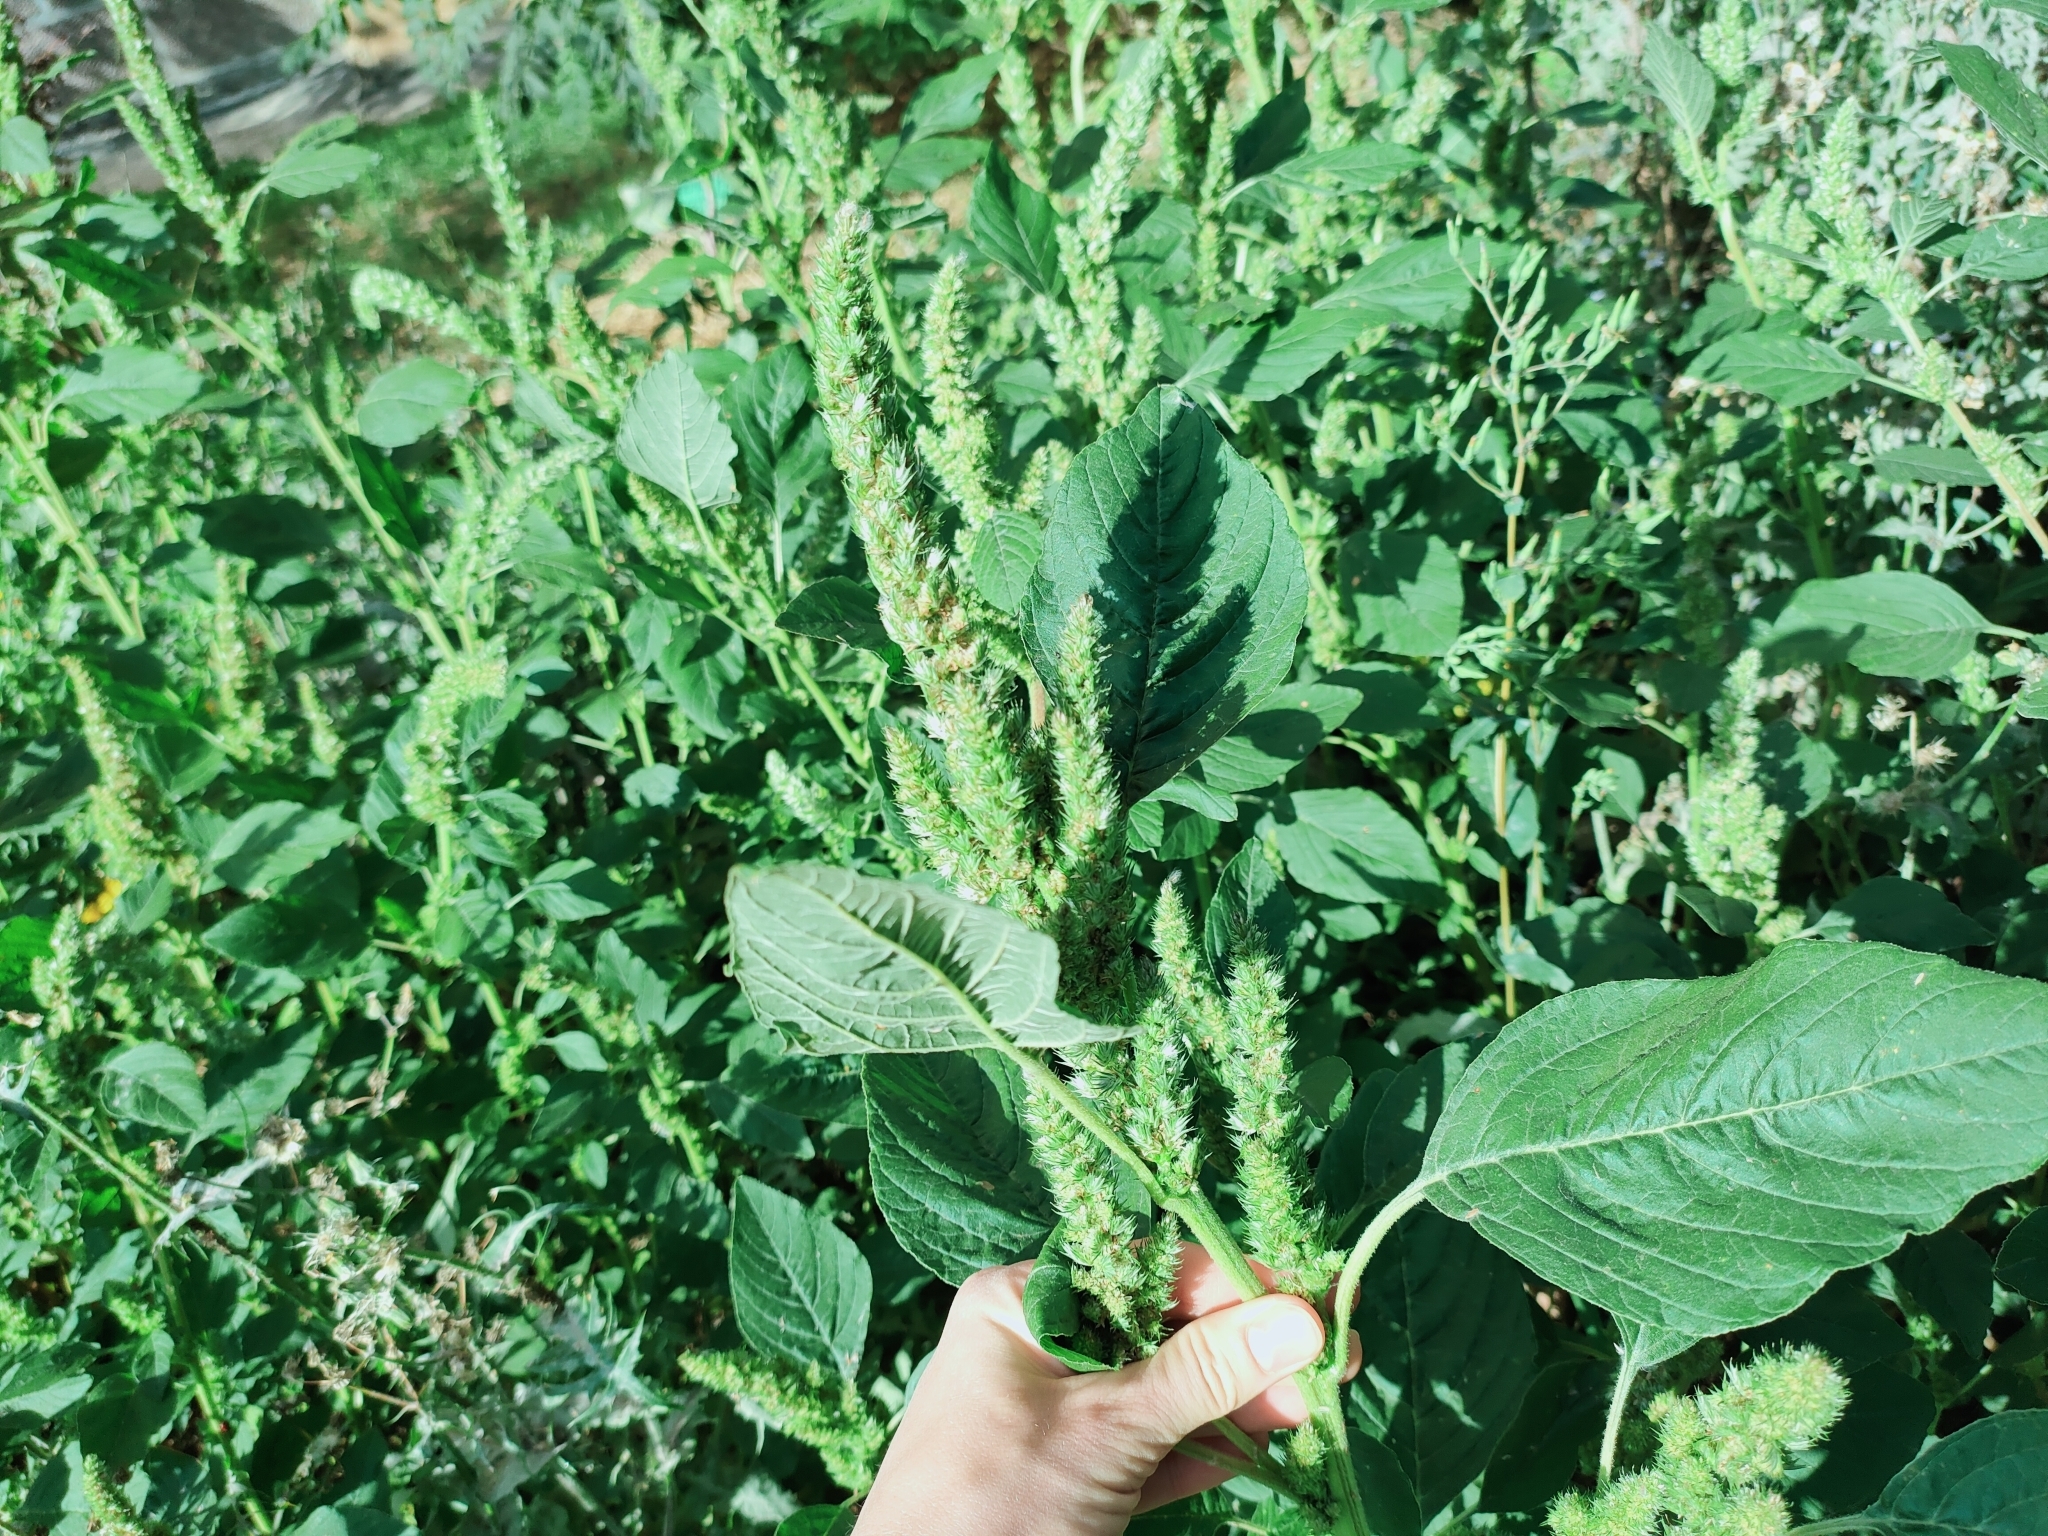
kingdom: Plantae
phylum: Tracheophyta
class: Magnoliopsida
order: Caryophyllales
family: Amaranthaceae
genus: Amaranthus
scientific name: Amaranthus retroflexus
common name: Redroot amaranth
